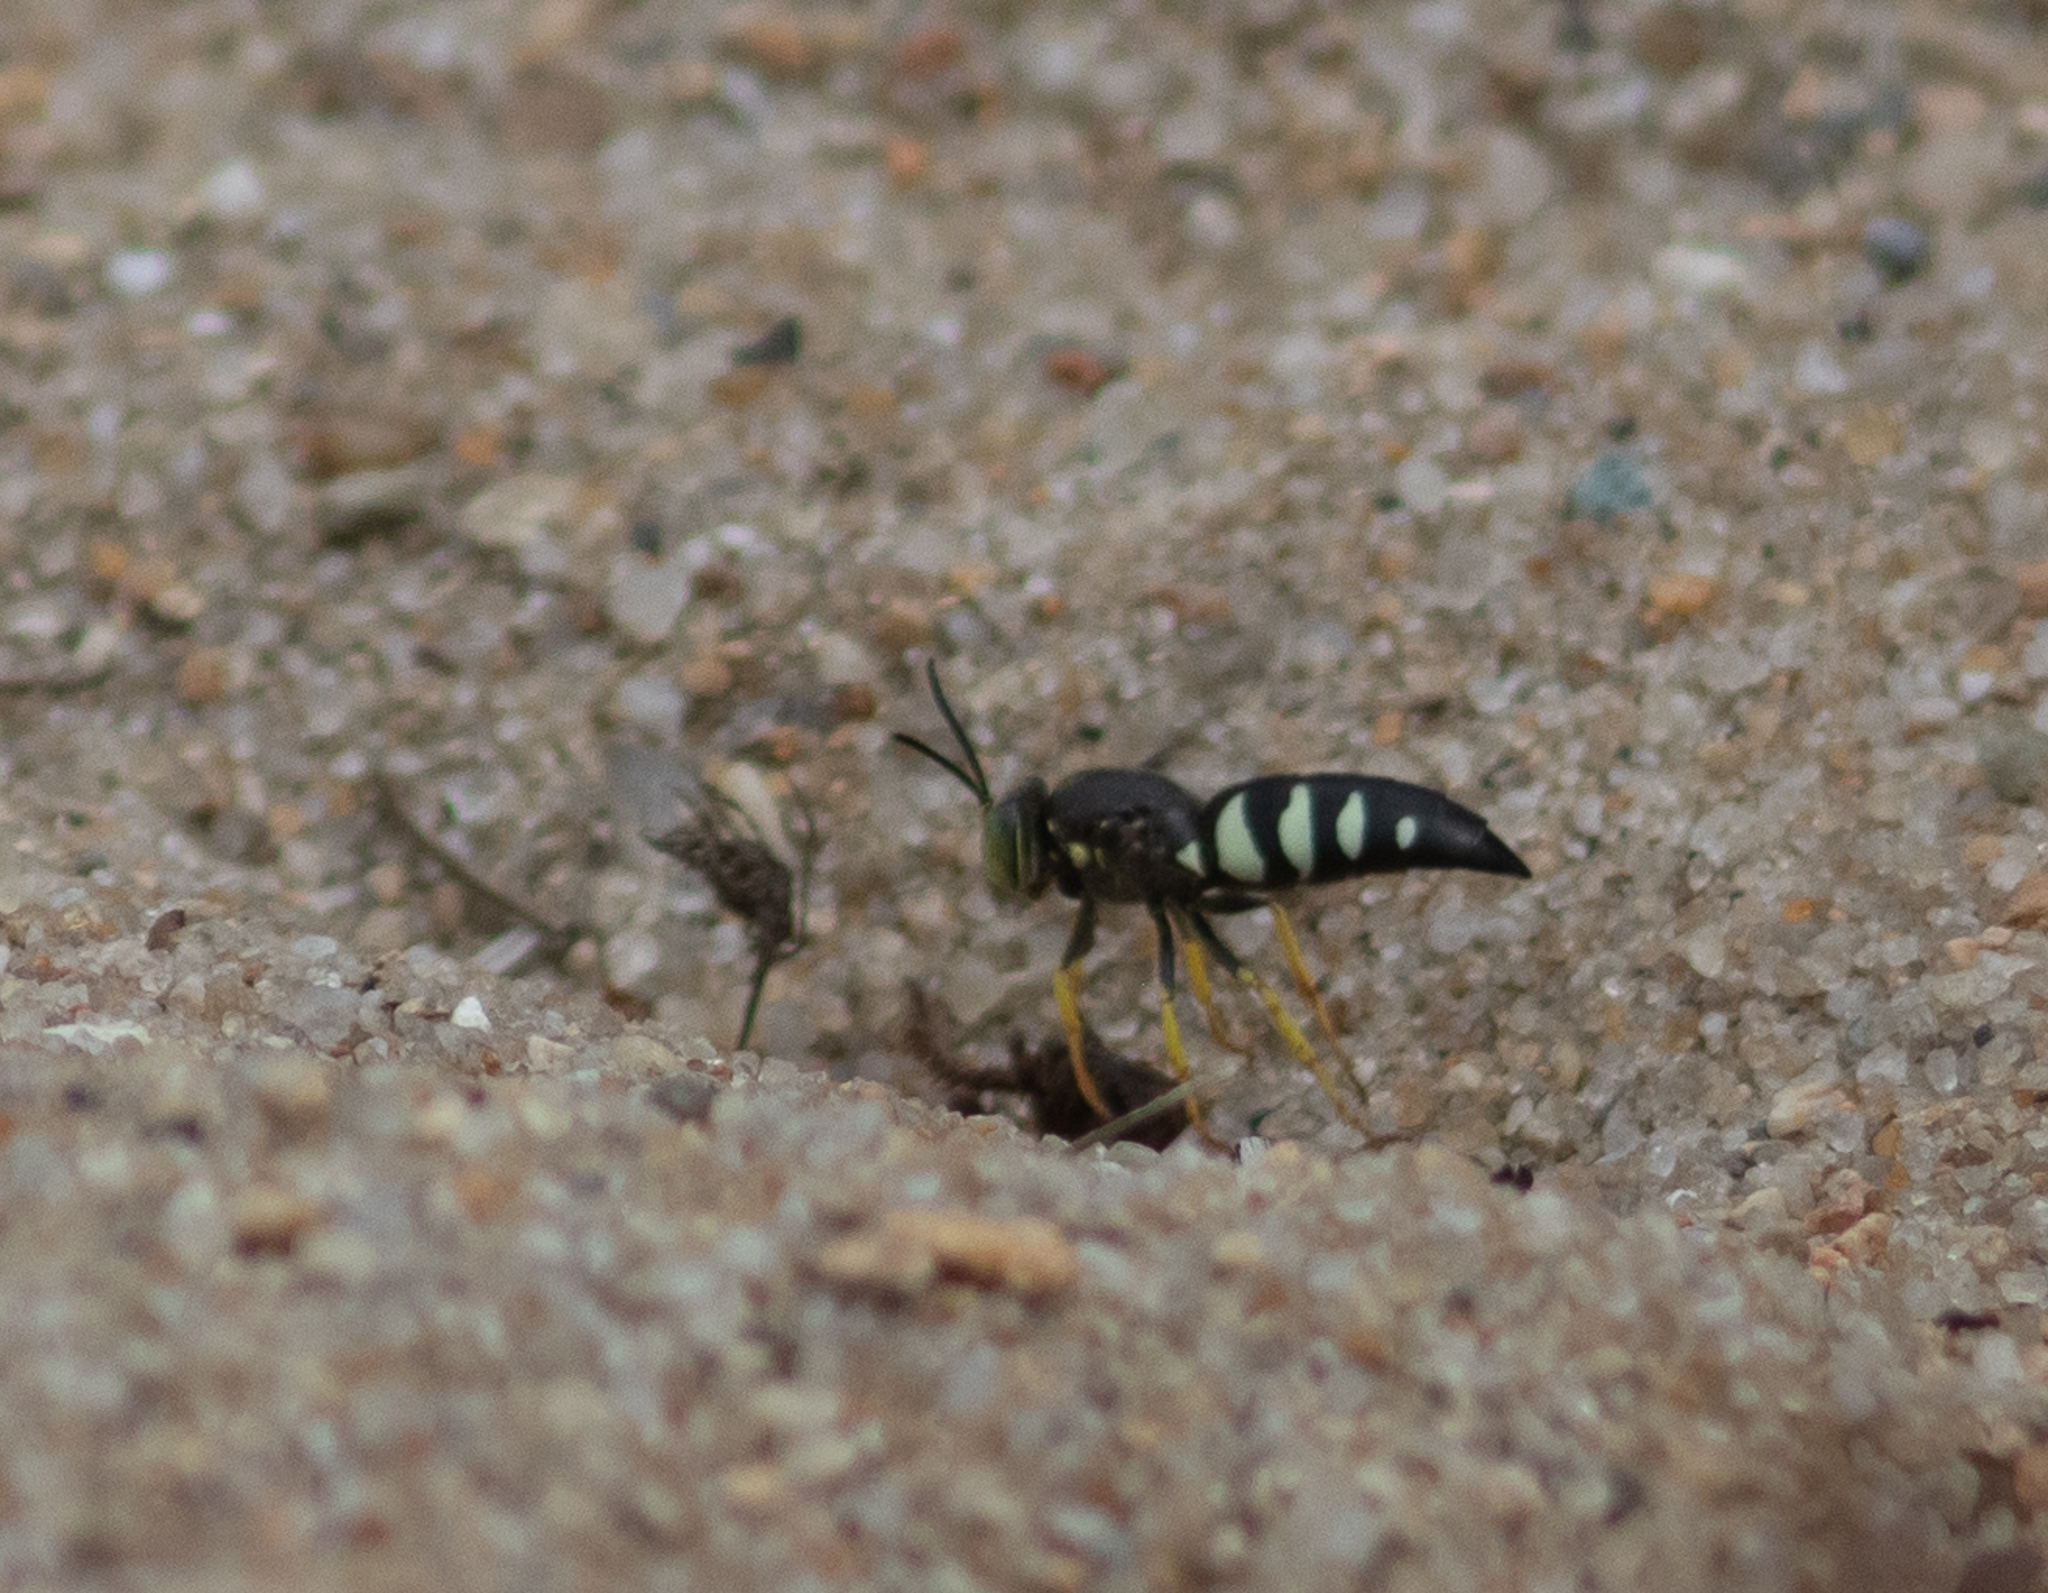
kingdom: Animalia
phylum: Arthropoda
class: Insecta
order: Hymenoptera
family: Crabronidae
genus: Bicyrtes
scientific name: Bicyrtes quadrifasciatus
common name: Four-banded stink bug hunter wasp
